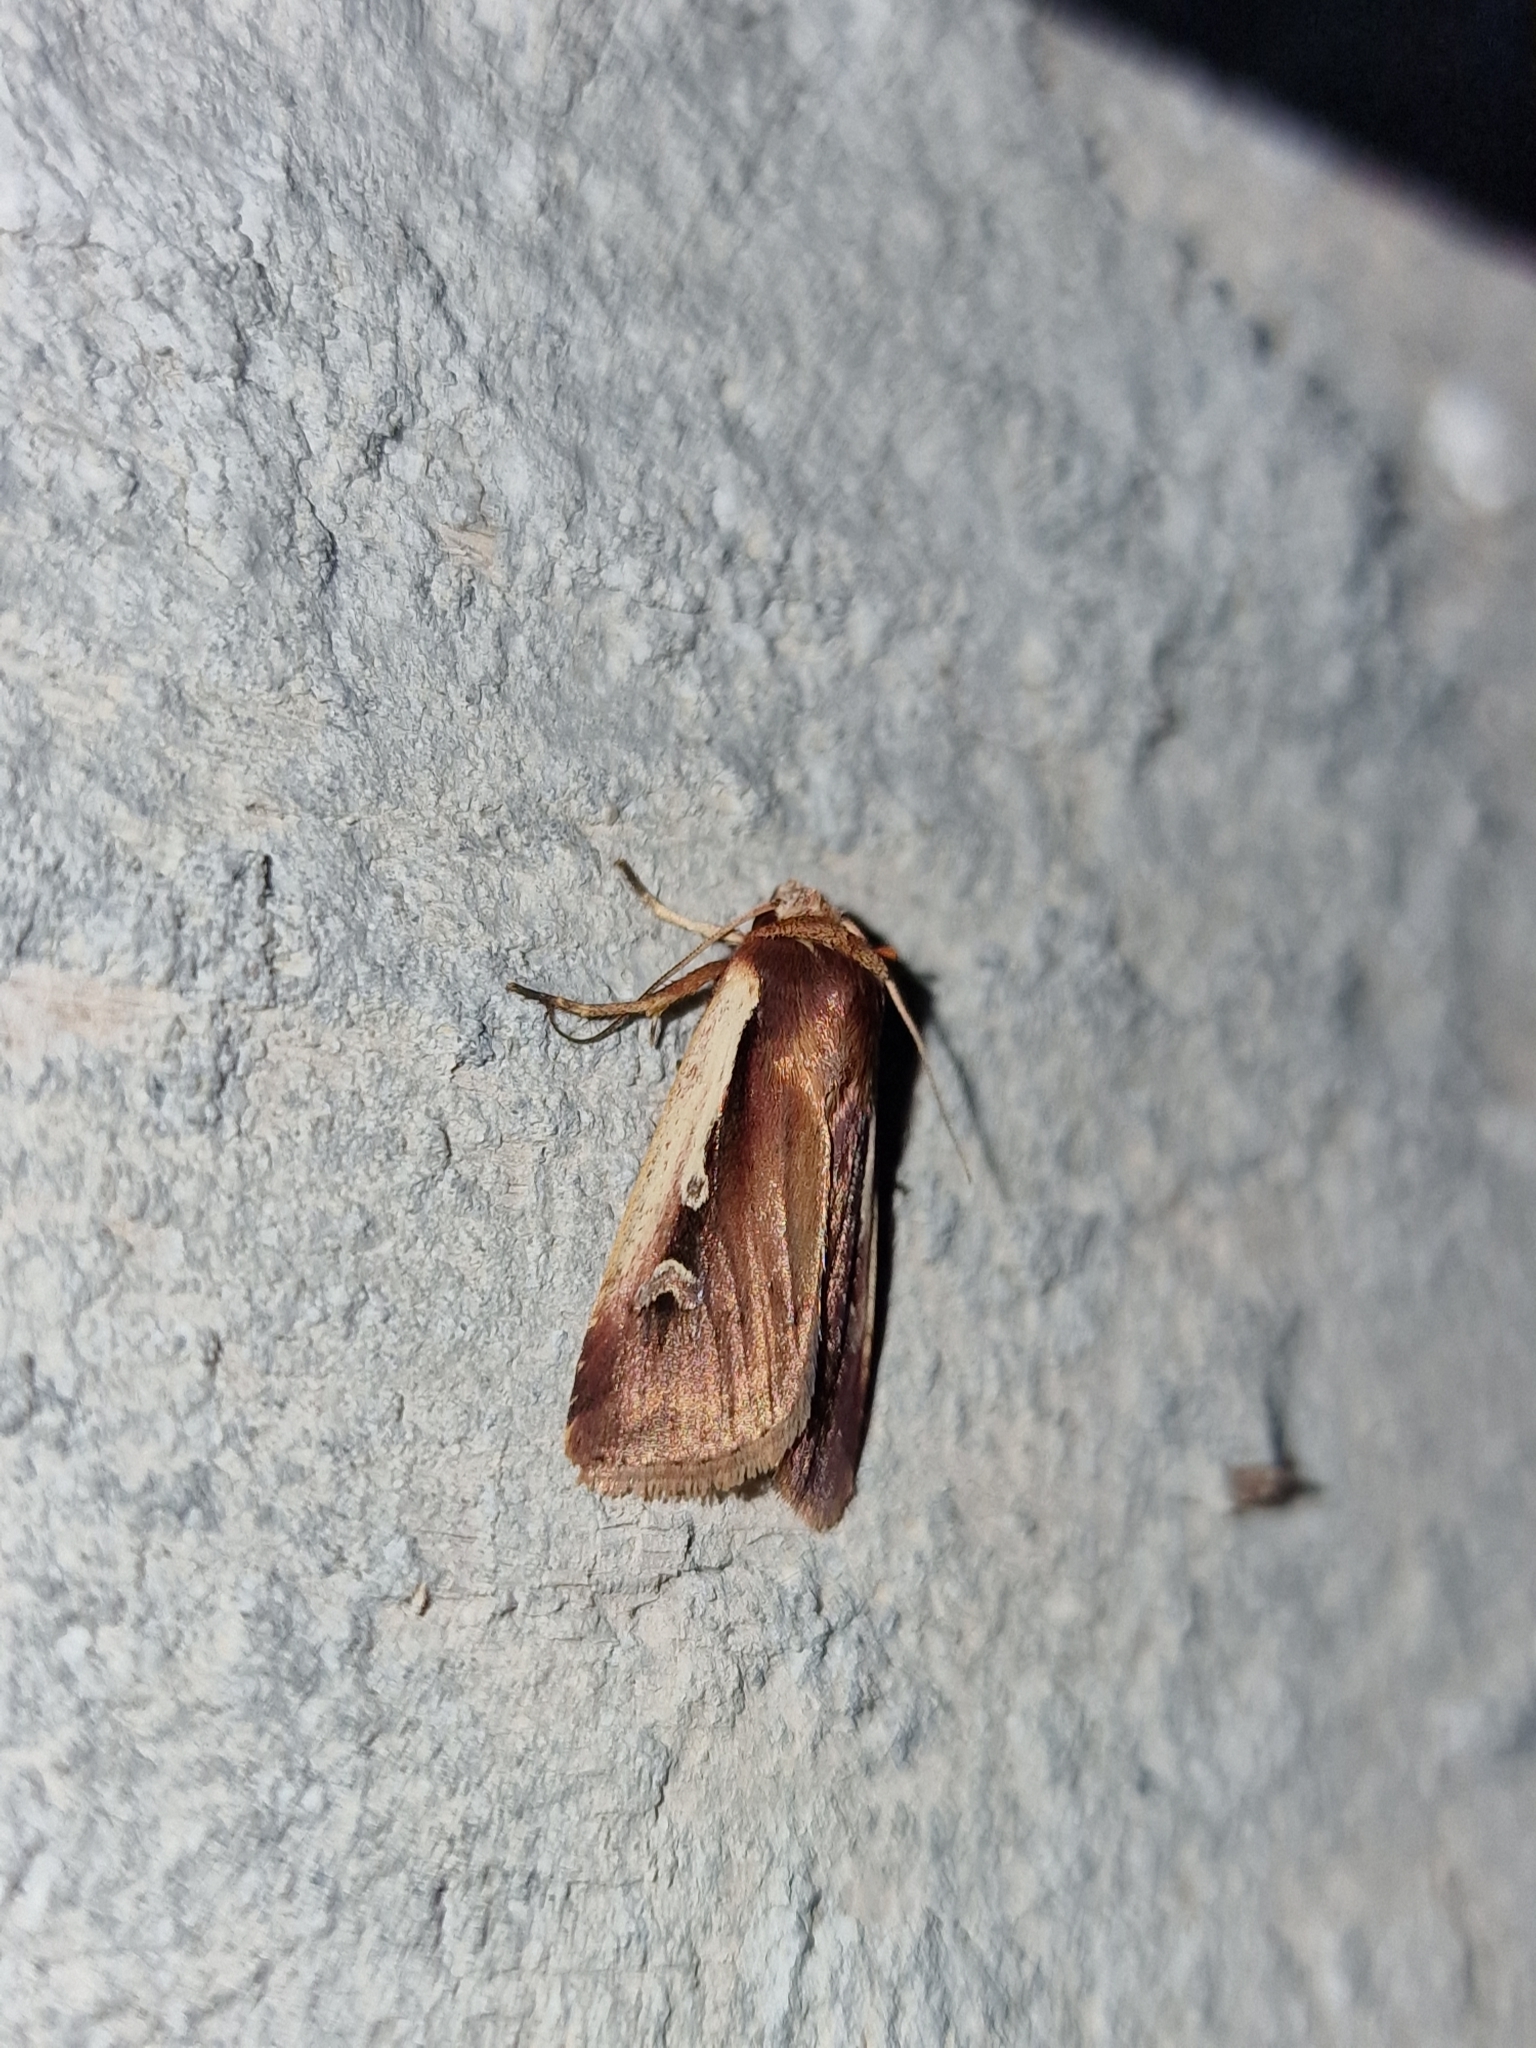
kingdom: Animalia
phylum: Arthropoda
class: Insecta
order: Lepidoptera
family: Noctuidae
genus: Ochropleura
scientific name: Ochropleura plecta
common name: Flame shoulder
